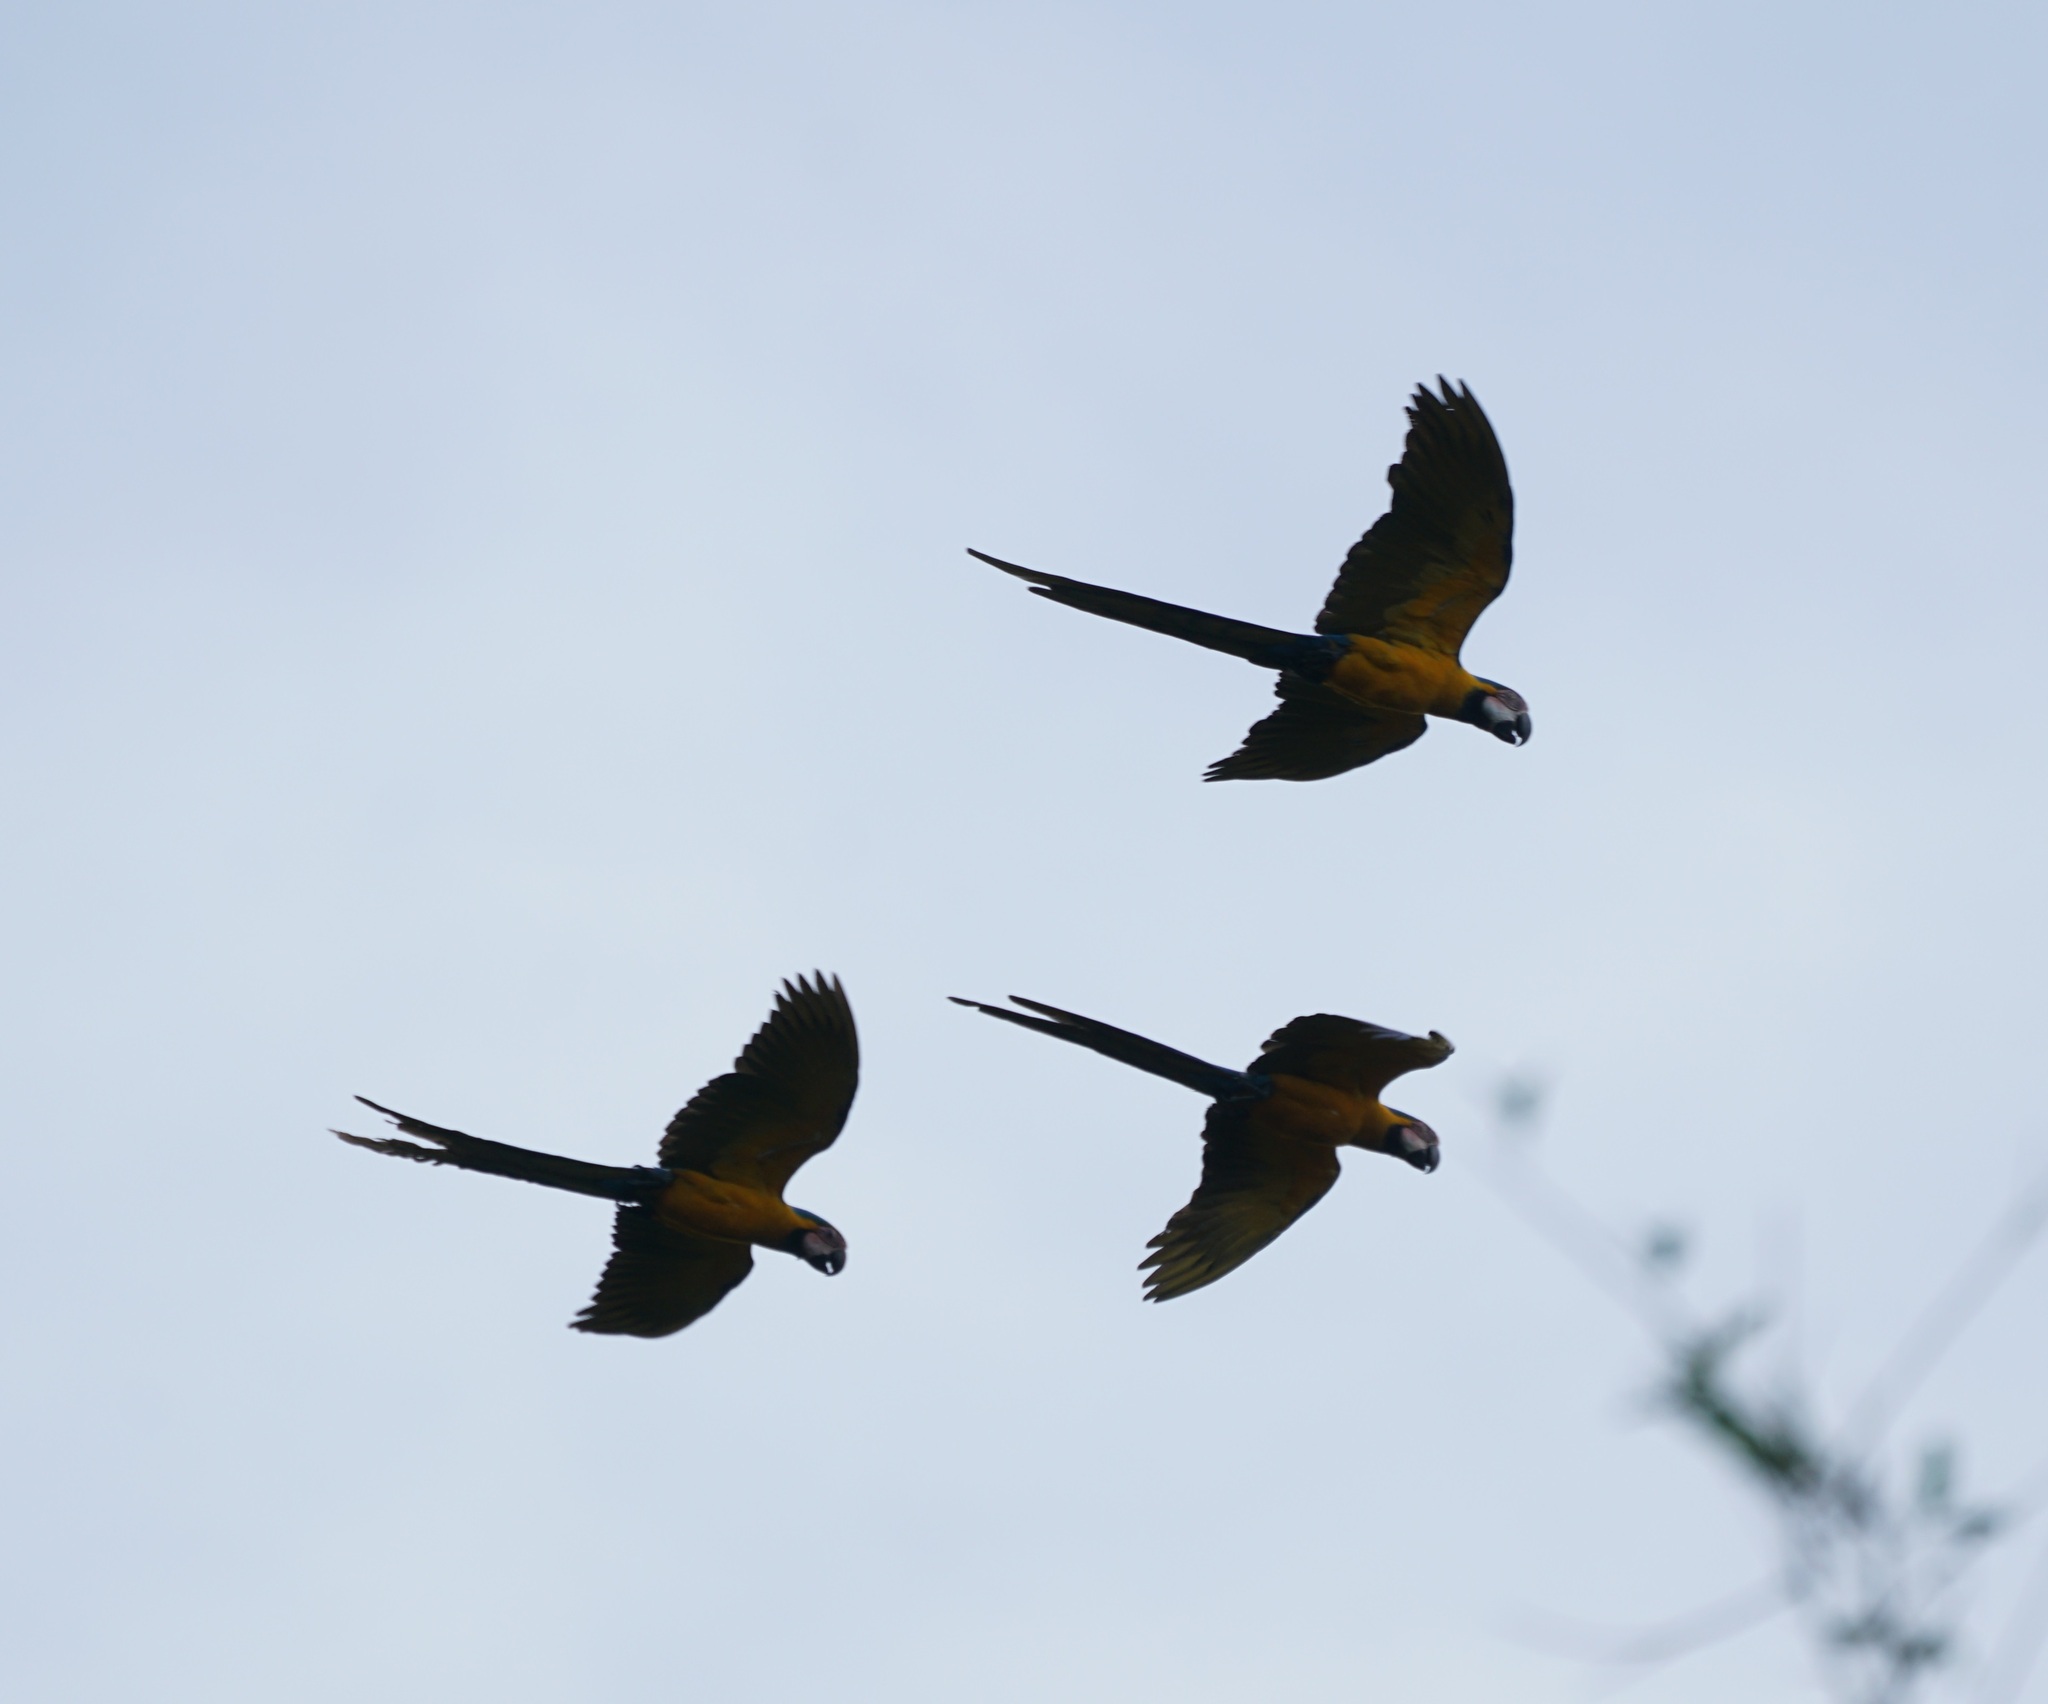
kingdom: Animalia
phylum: Chordata
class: Aves
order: Psittaciformes
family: Psittacidae
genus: Ara
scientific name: Ara ararauna
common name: Blue-and-yellow macaw
